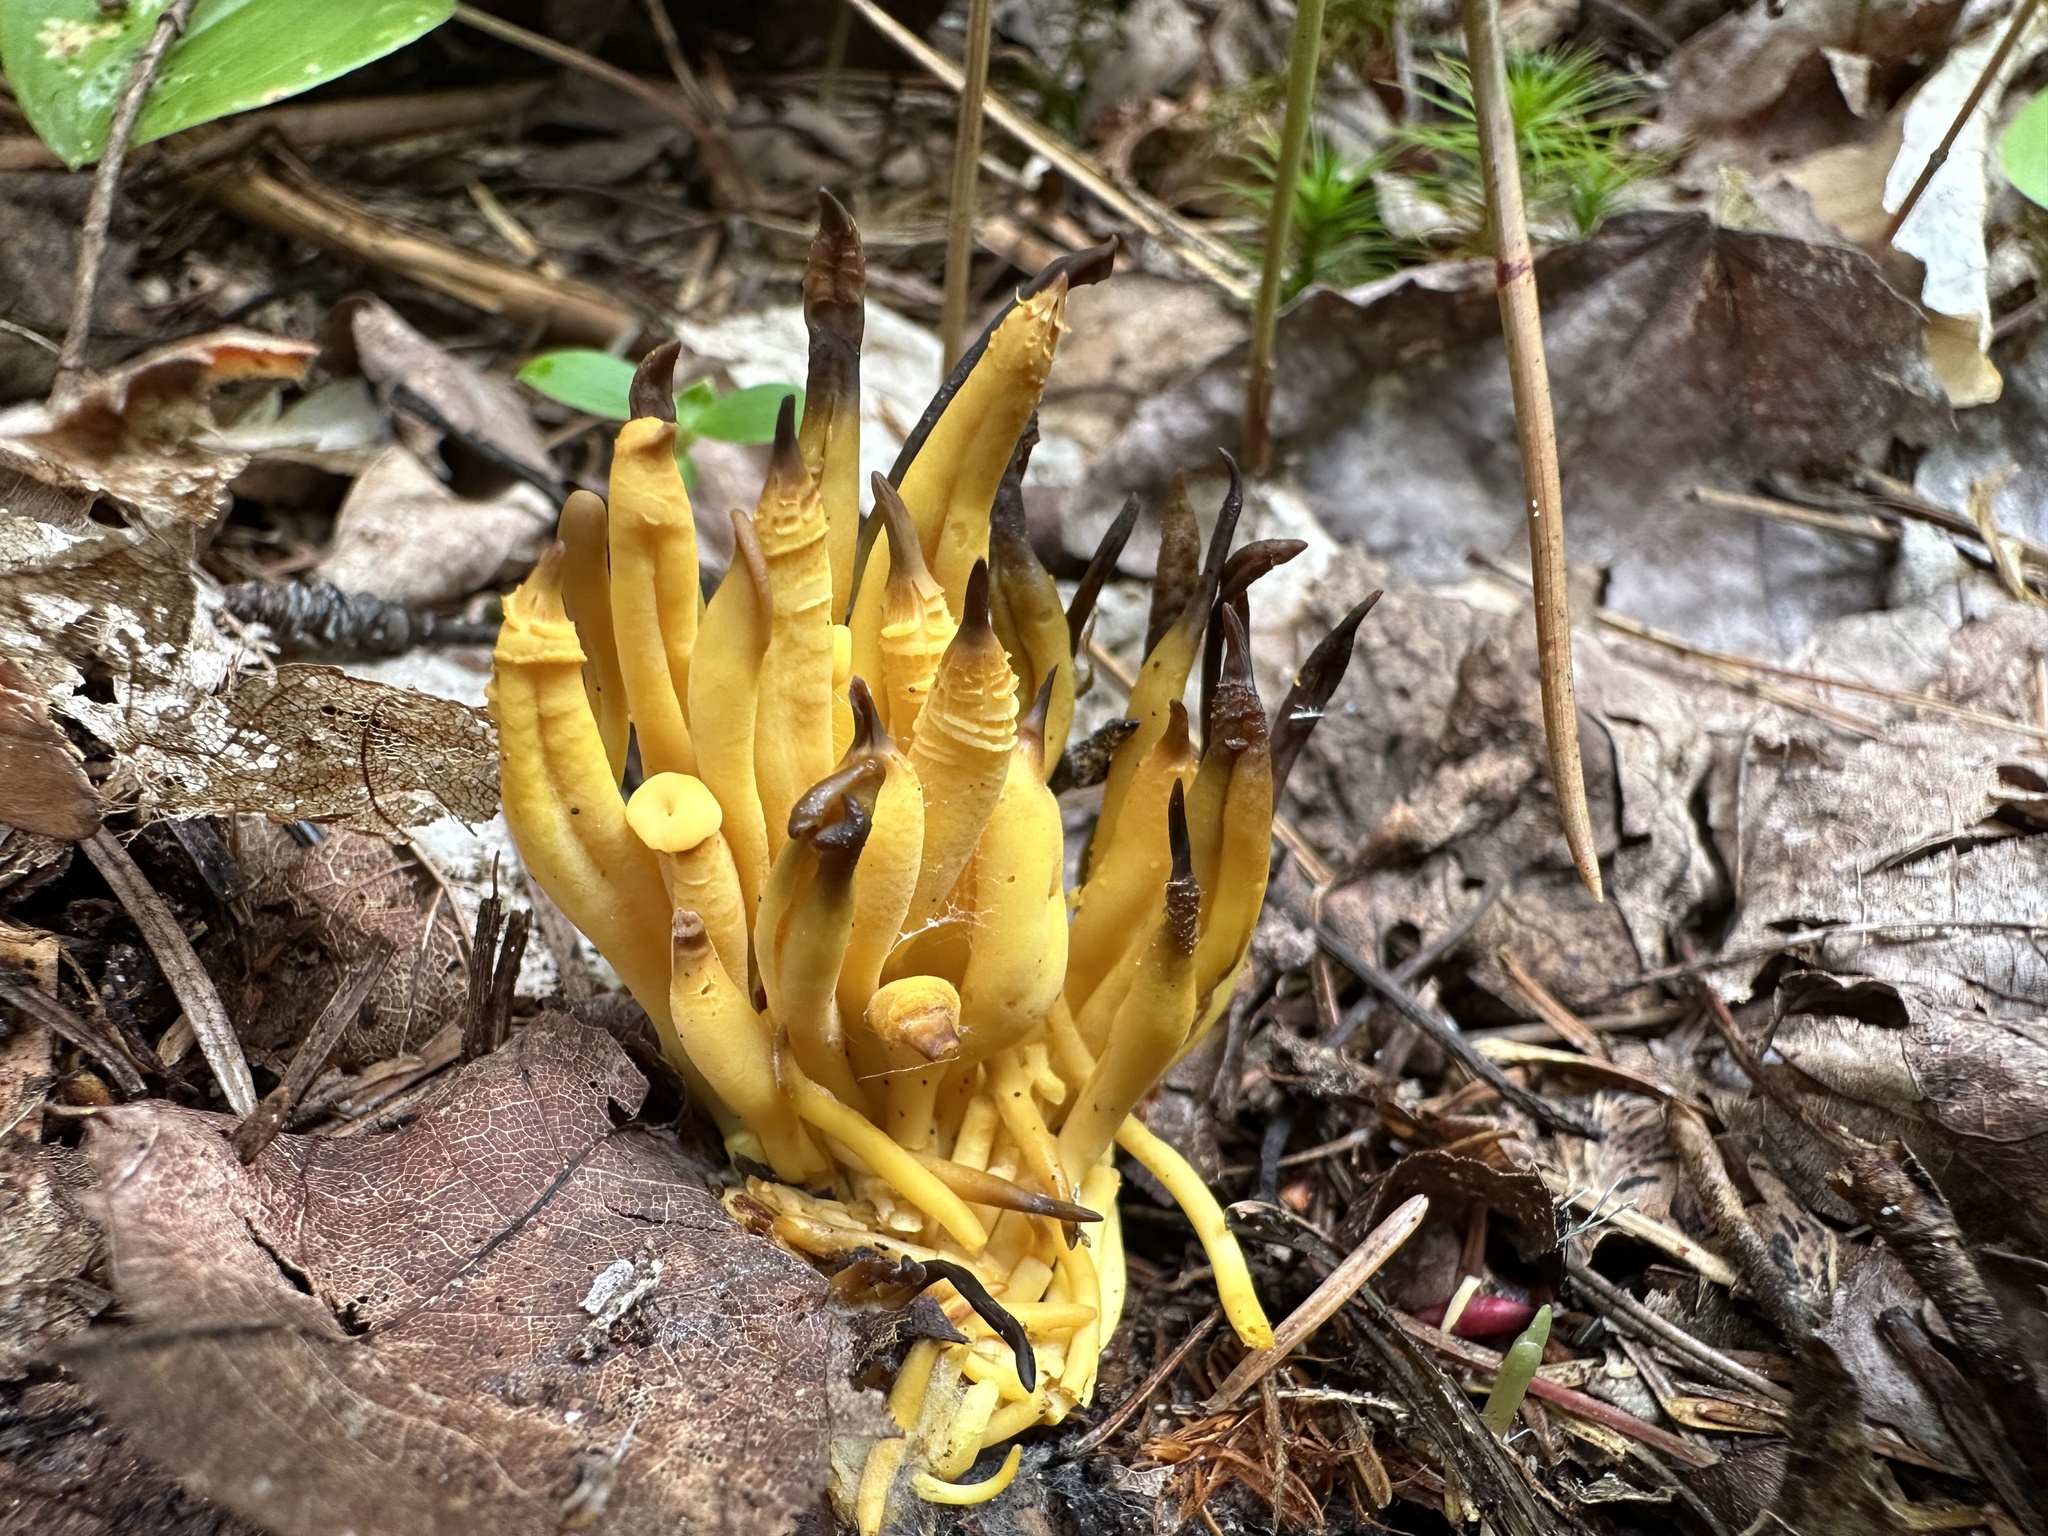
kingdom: Fungi
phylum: Basidiomycota
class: Agaricomycetes
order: Agaricales
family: Clavariaceae
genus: Clavulinopsis
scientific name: Clavulinopsis fusiformis
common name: Golden spindles
